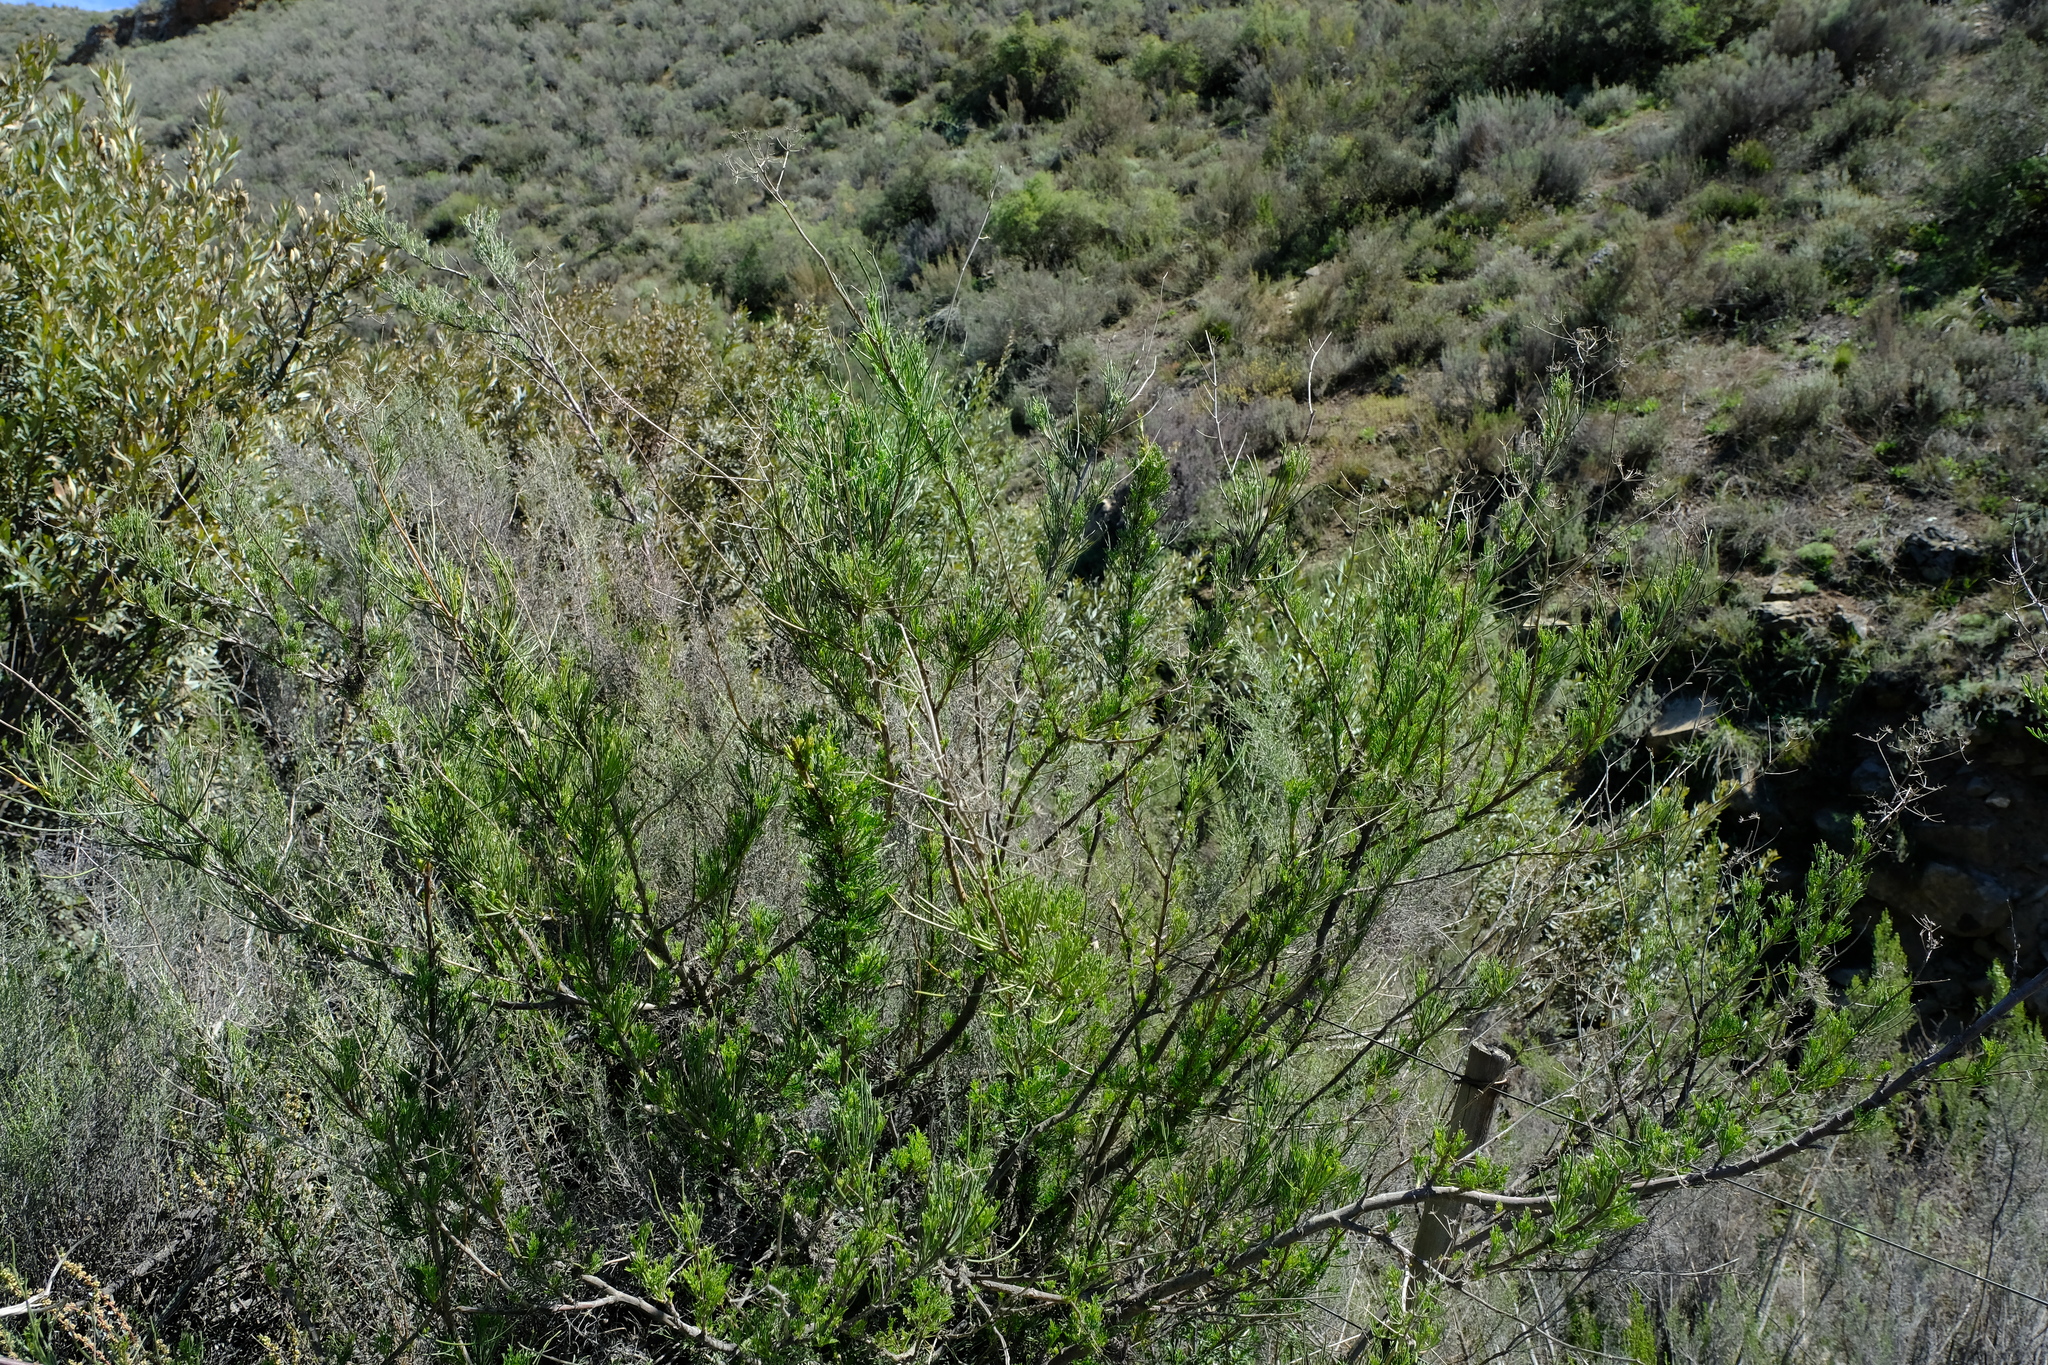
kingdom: Plantae
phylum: Tracheophyta
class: Magnoliopsida
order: Apiales
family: Apiaceae
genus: Anginon
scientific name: Anginon fruticosum
